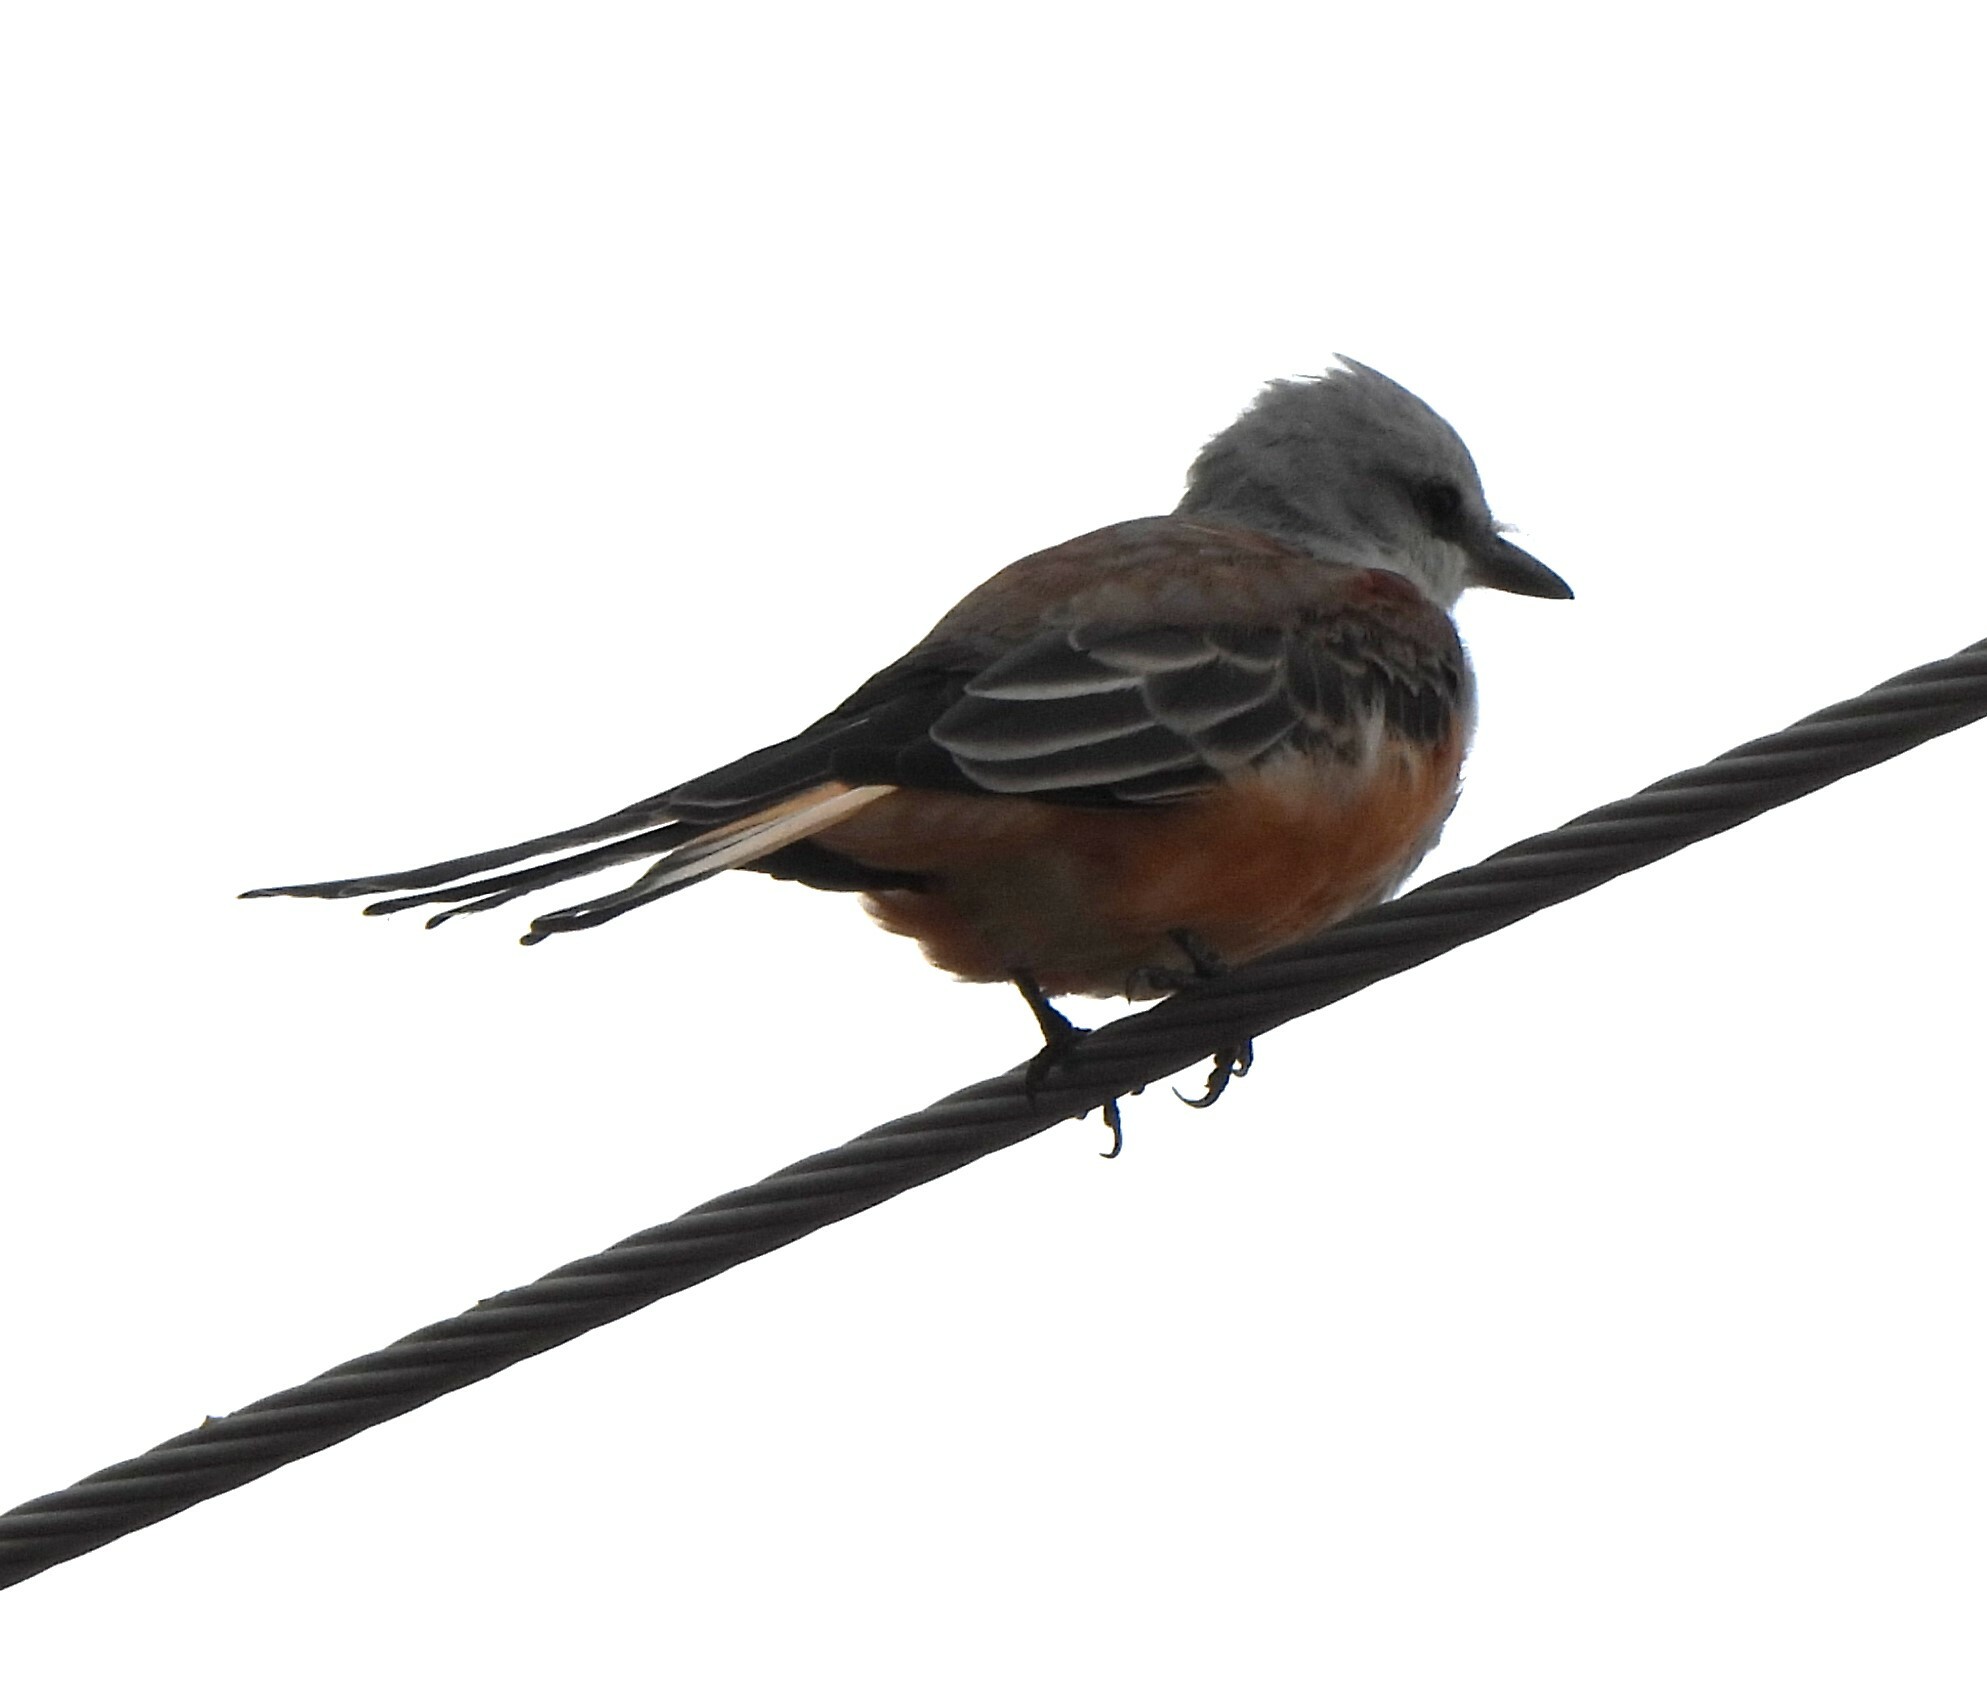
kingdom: Animalia
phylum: Chordata
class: Aves
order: Passeriformes
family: Tyrannidae
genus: Tyrannus
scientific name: Tyrannus forficatus
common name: Scissor-tailed flycatcher
